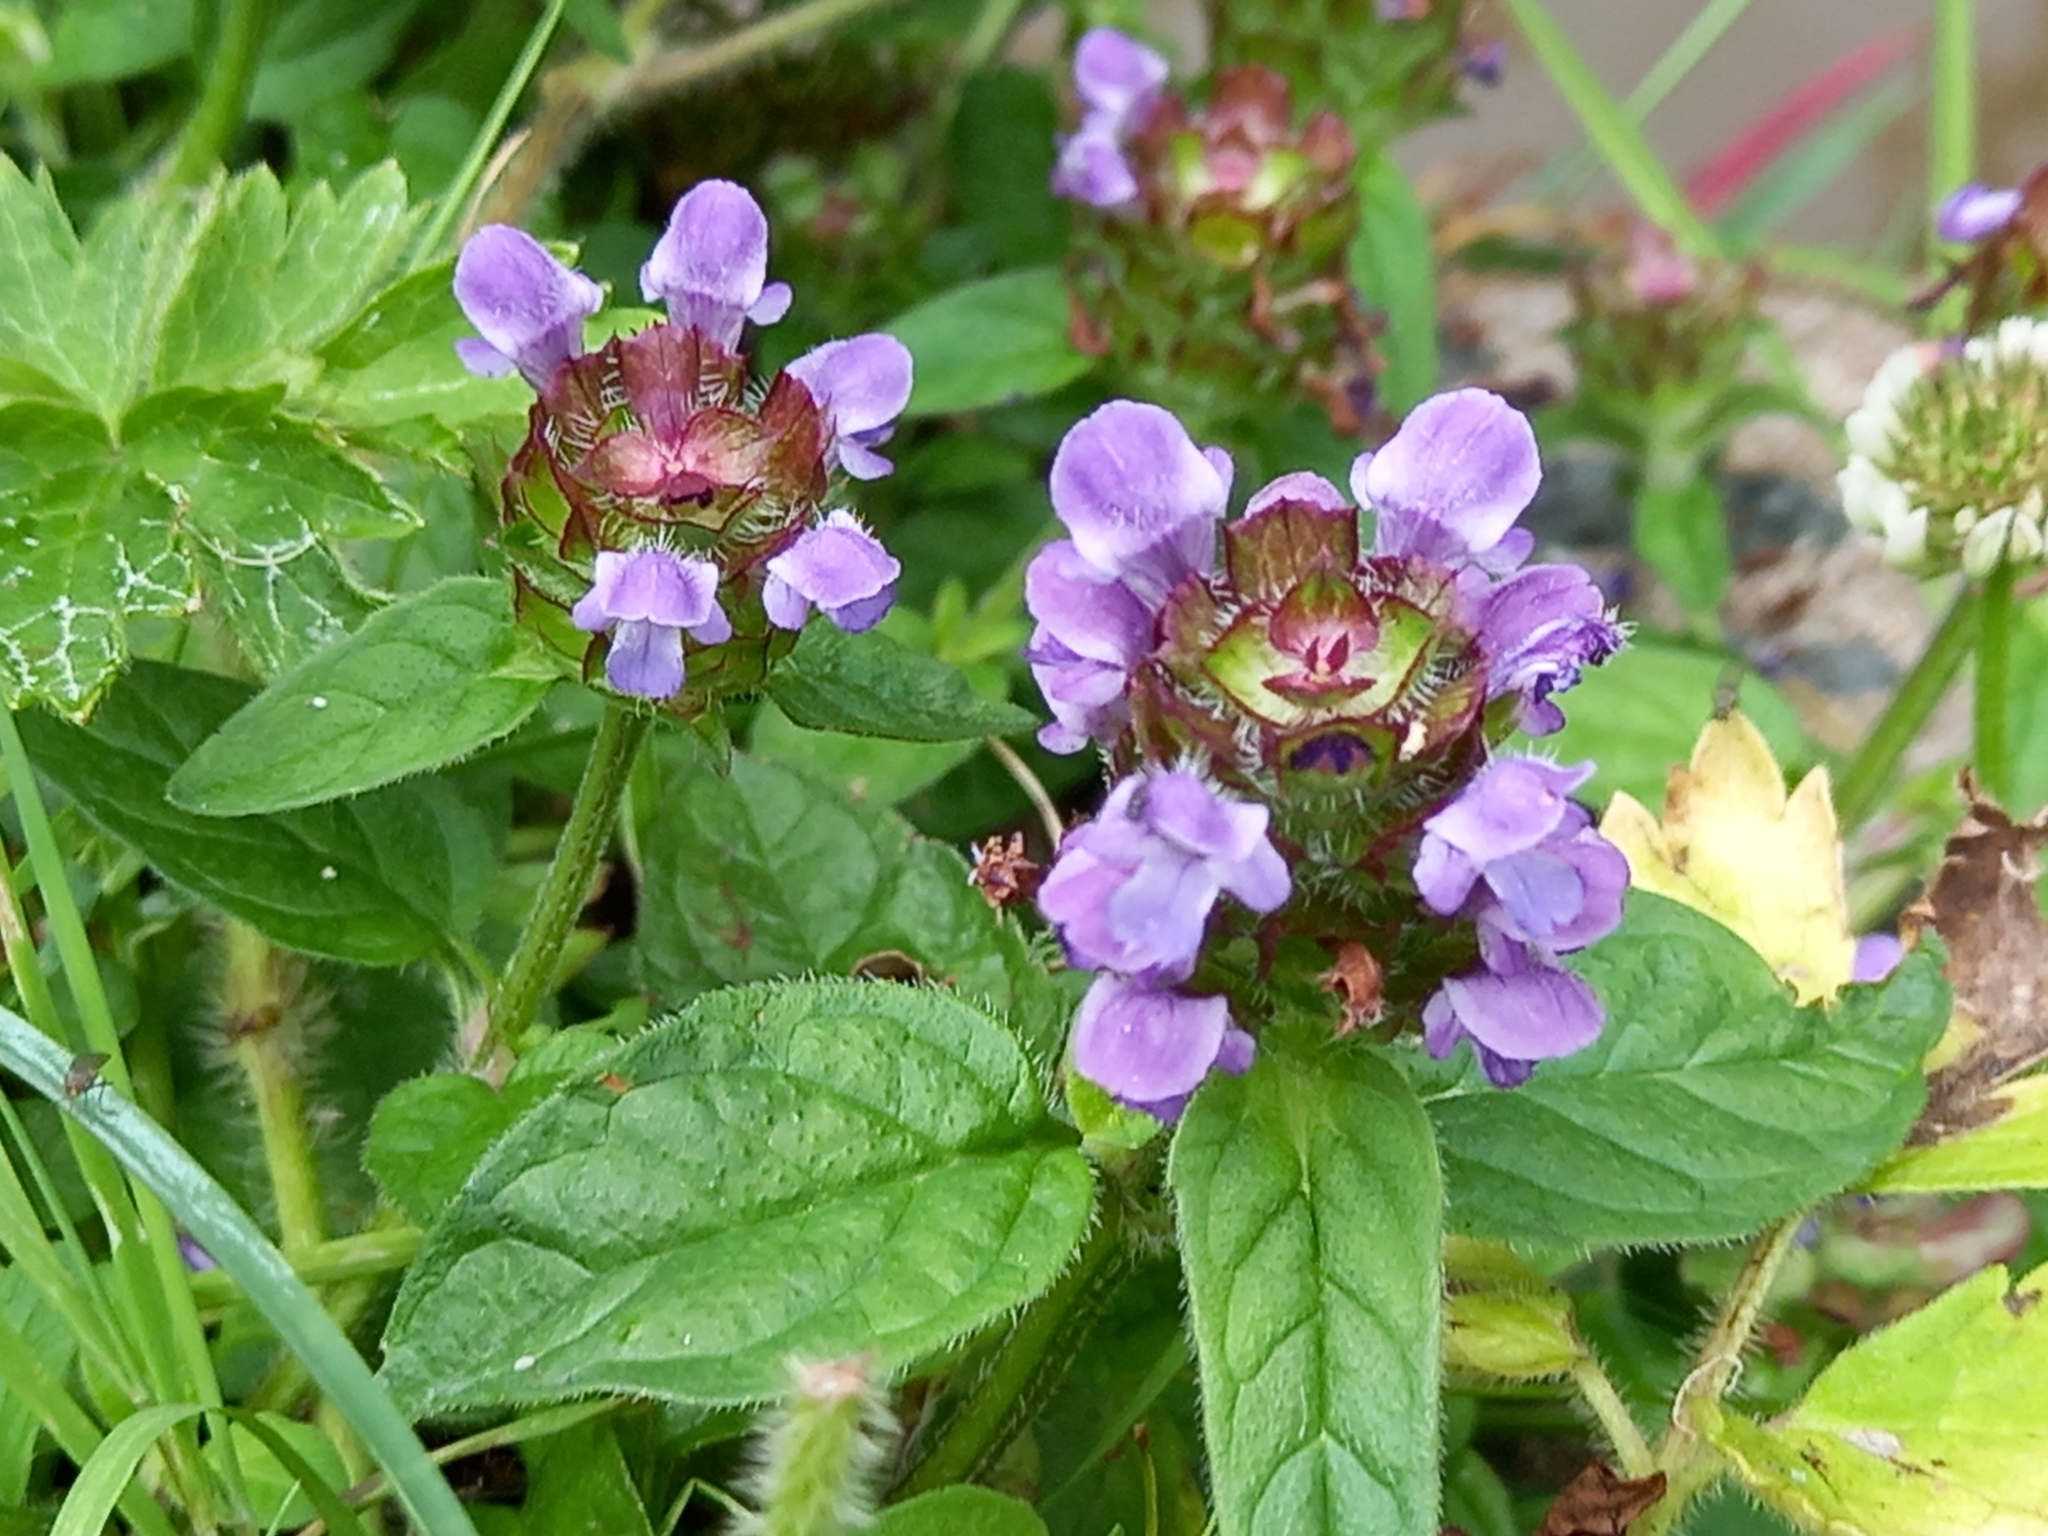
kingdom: Plantae
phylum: Tracheophyta
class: Magnoliopsida
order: Lamiales
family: Lamiaceae
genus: Prunella
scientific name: Prunella vulgaris
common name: Heal-all
